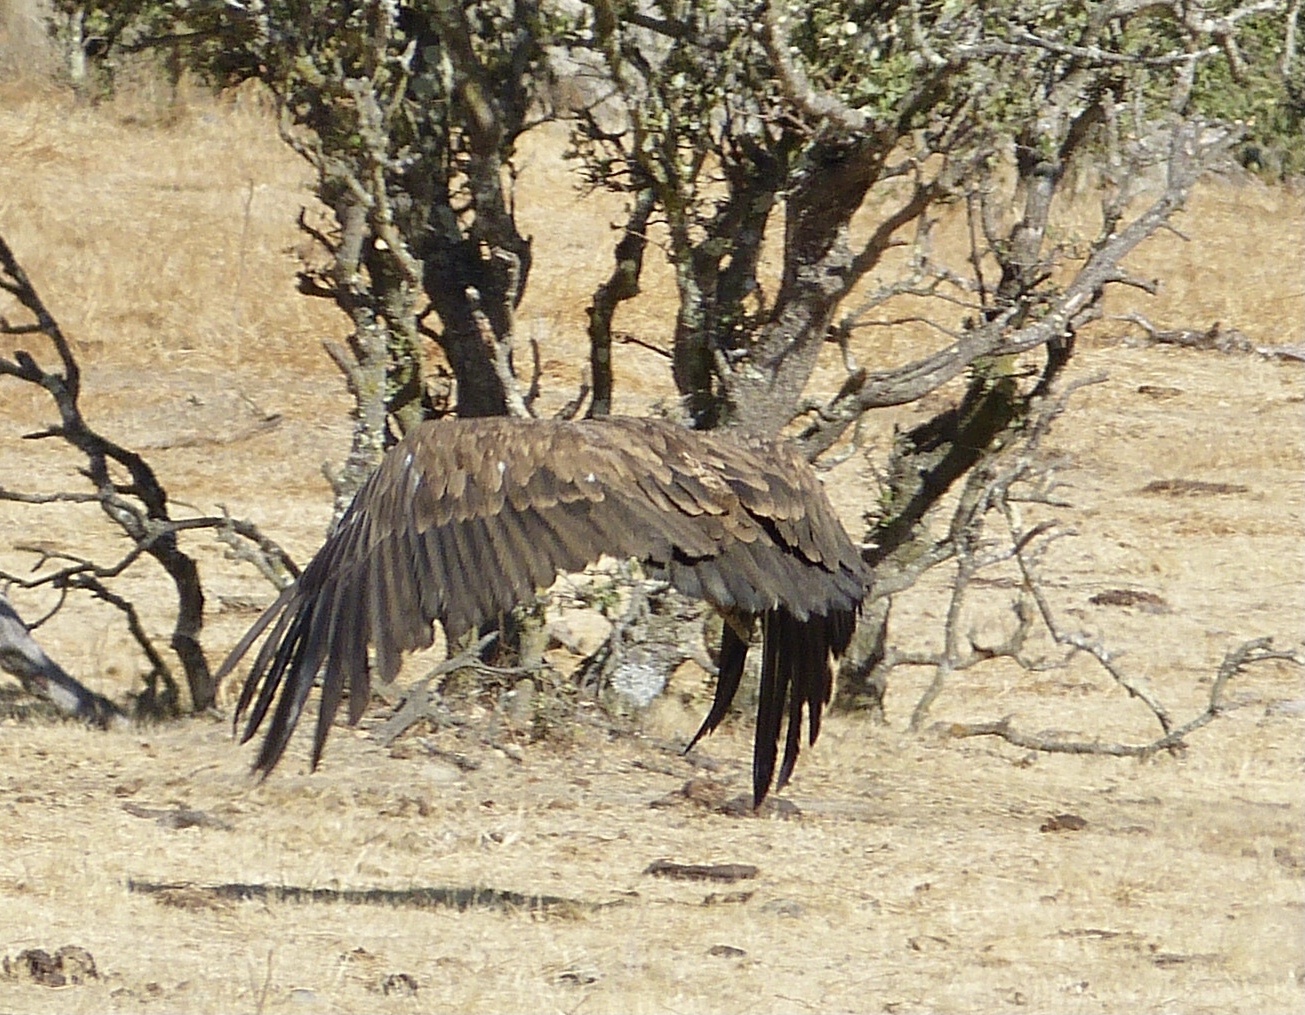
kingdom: Animalia
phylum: Chordata
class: Aves
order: Accipitriformes
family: Accipitridae
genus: Gyps
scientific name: Gyps fulvus
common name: Griffon vulture
